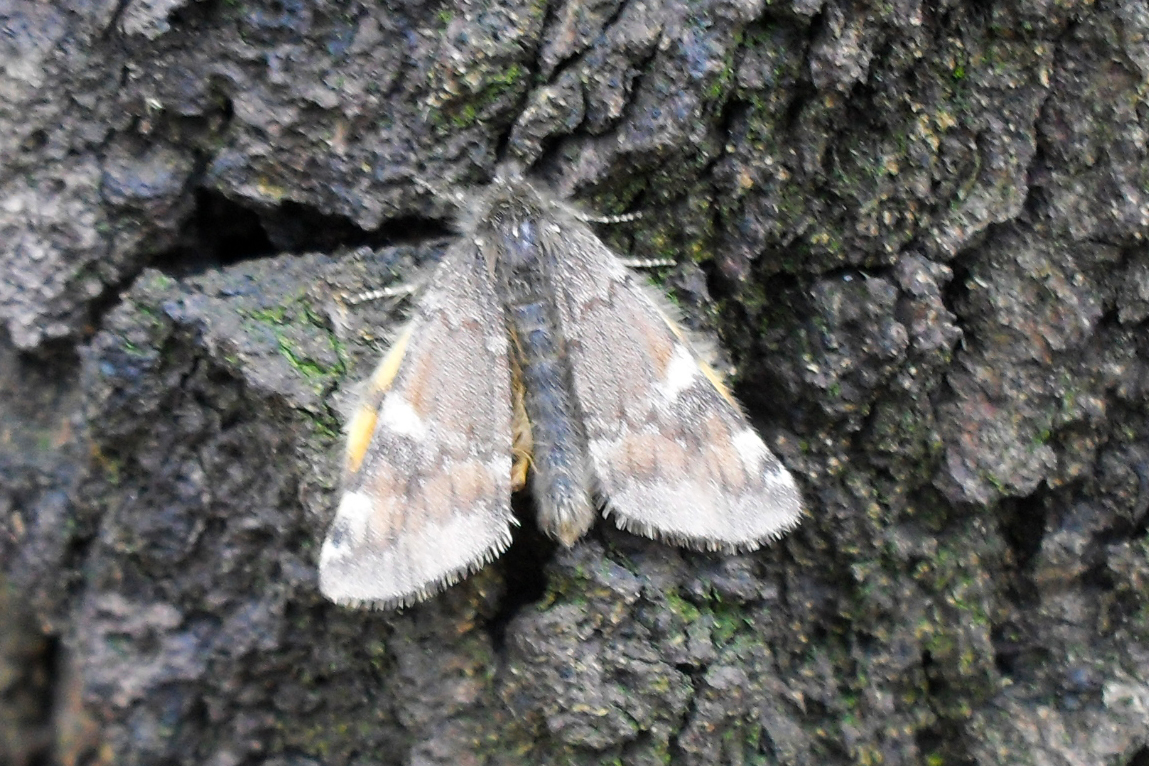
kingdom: Animalia
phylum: Arthropoda
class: Insecta
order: Lepidoptera
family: Geometridae
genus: Archiearis
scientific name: Archiearis parthenias
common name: Orange underwing
